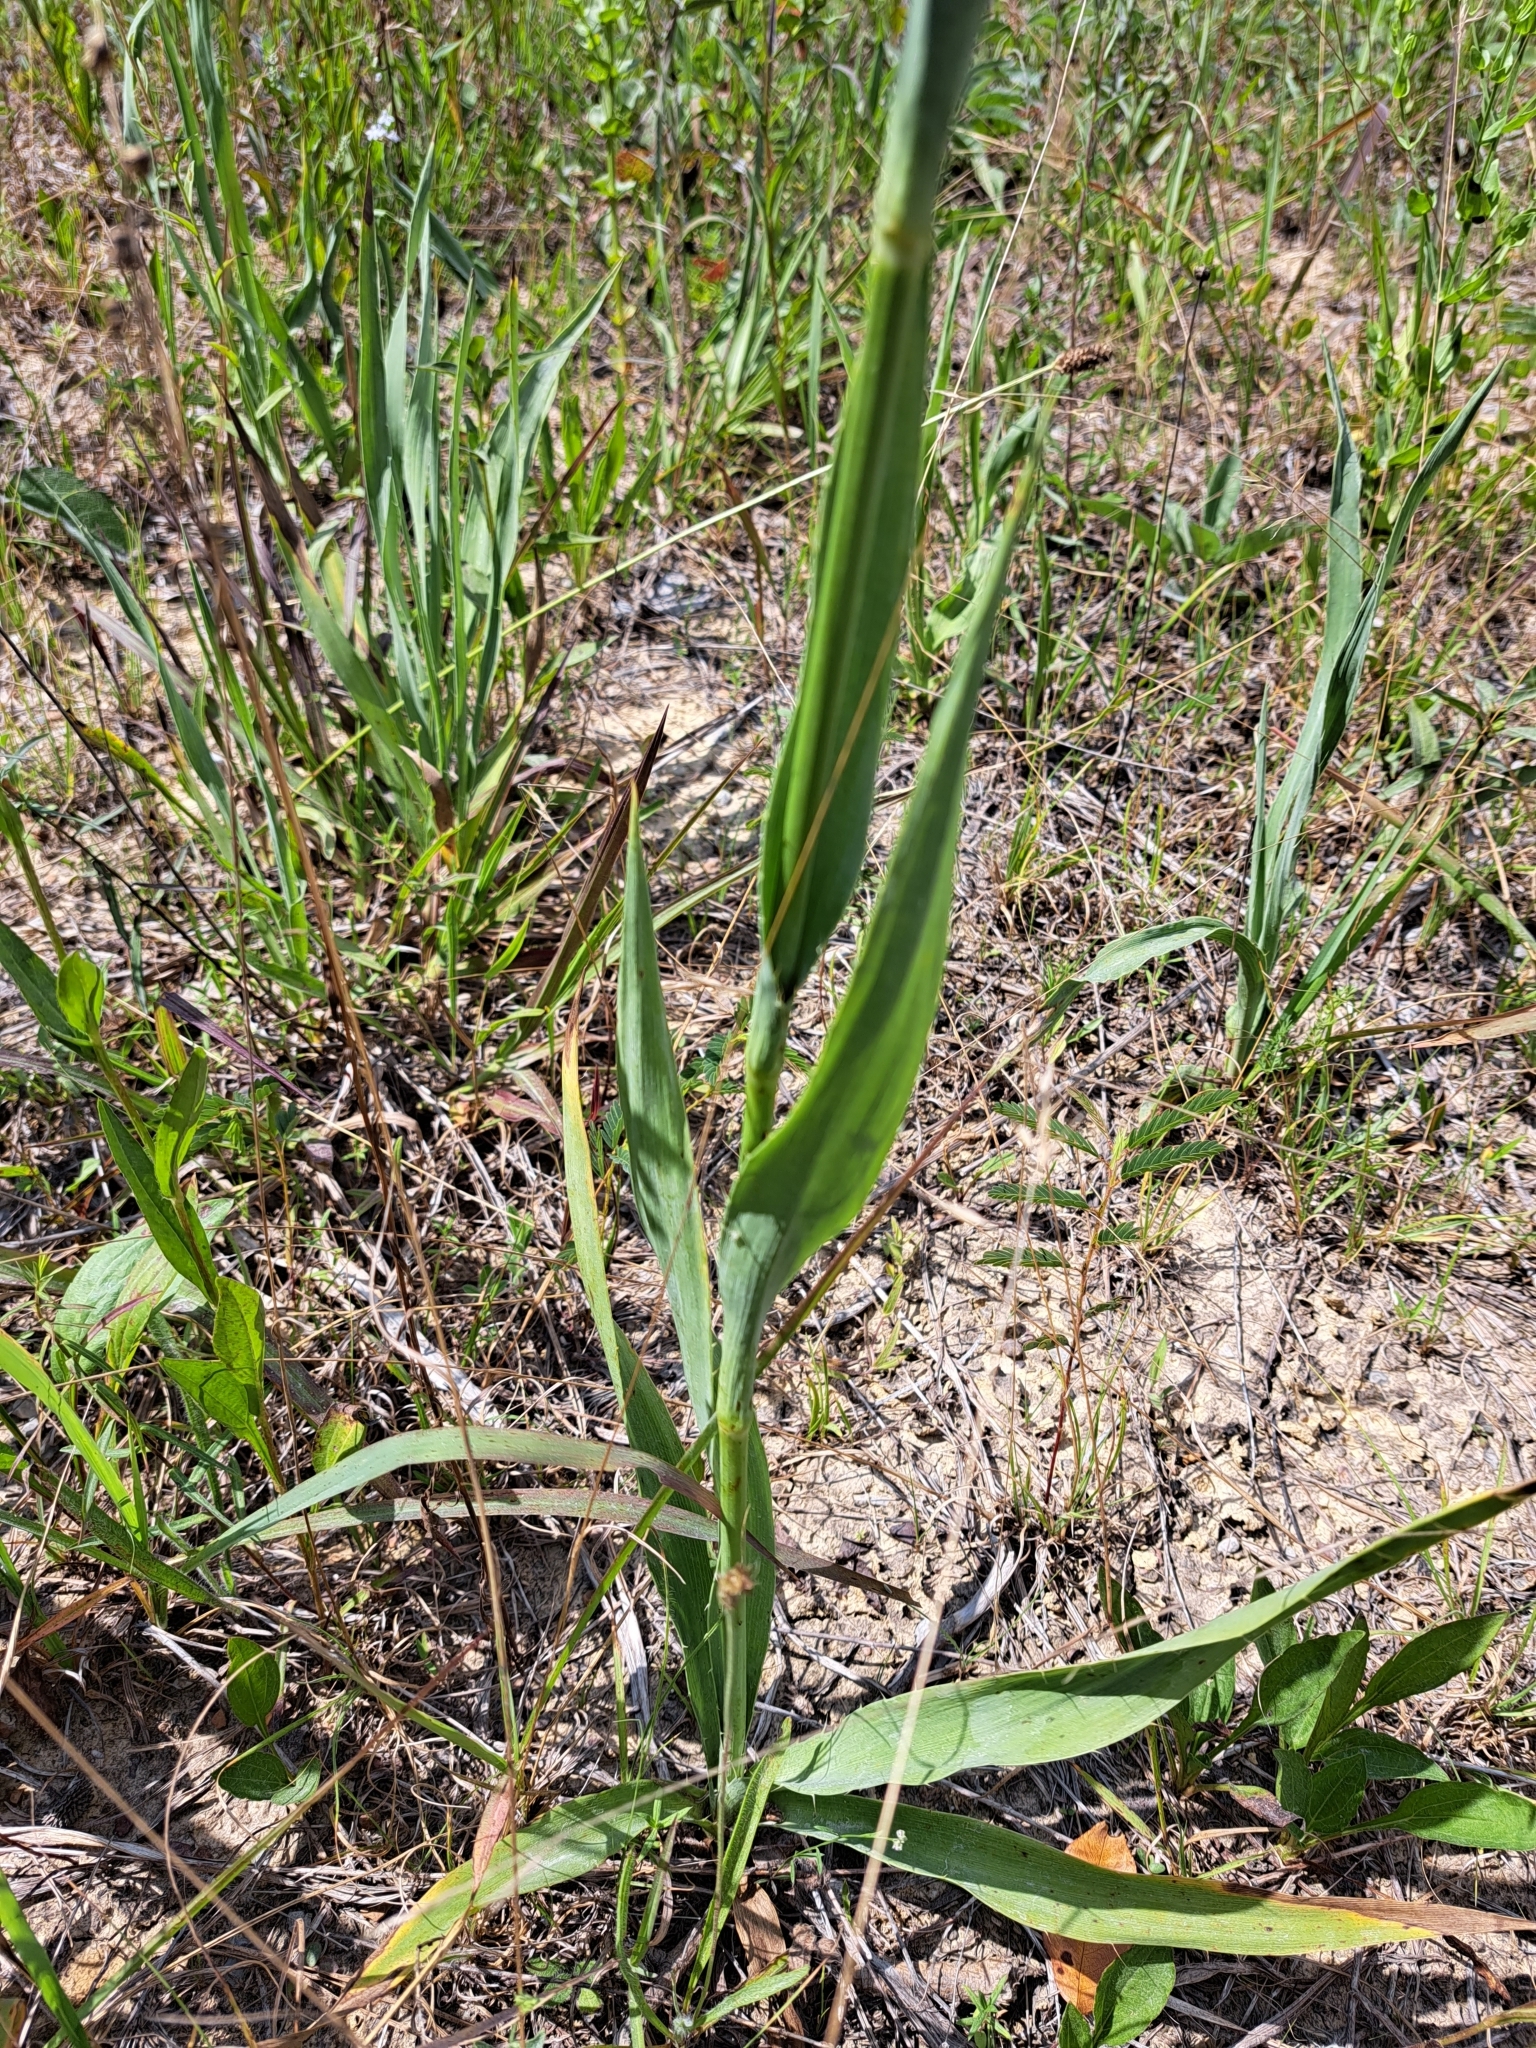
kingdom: Plantae
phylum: Tracheophyta
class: Magnoliopsida
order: Apiales
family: Apiaceae
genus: Eryngium
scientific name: Eryngium yuccifolium
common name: Button eryngo
